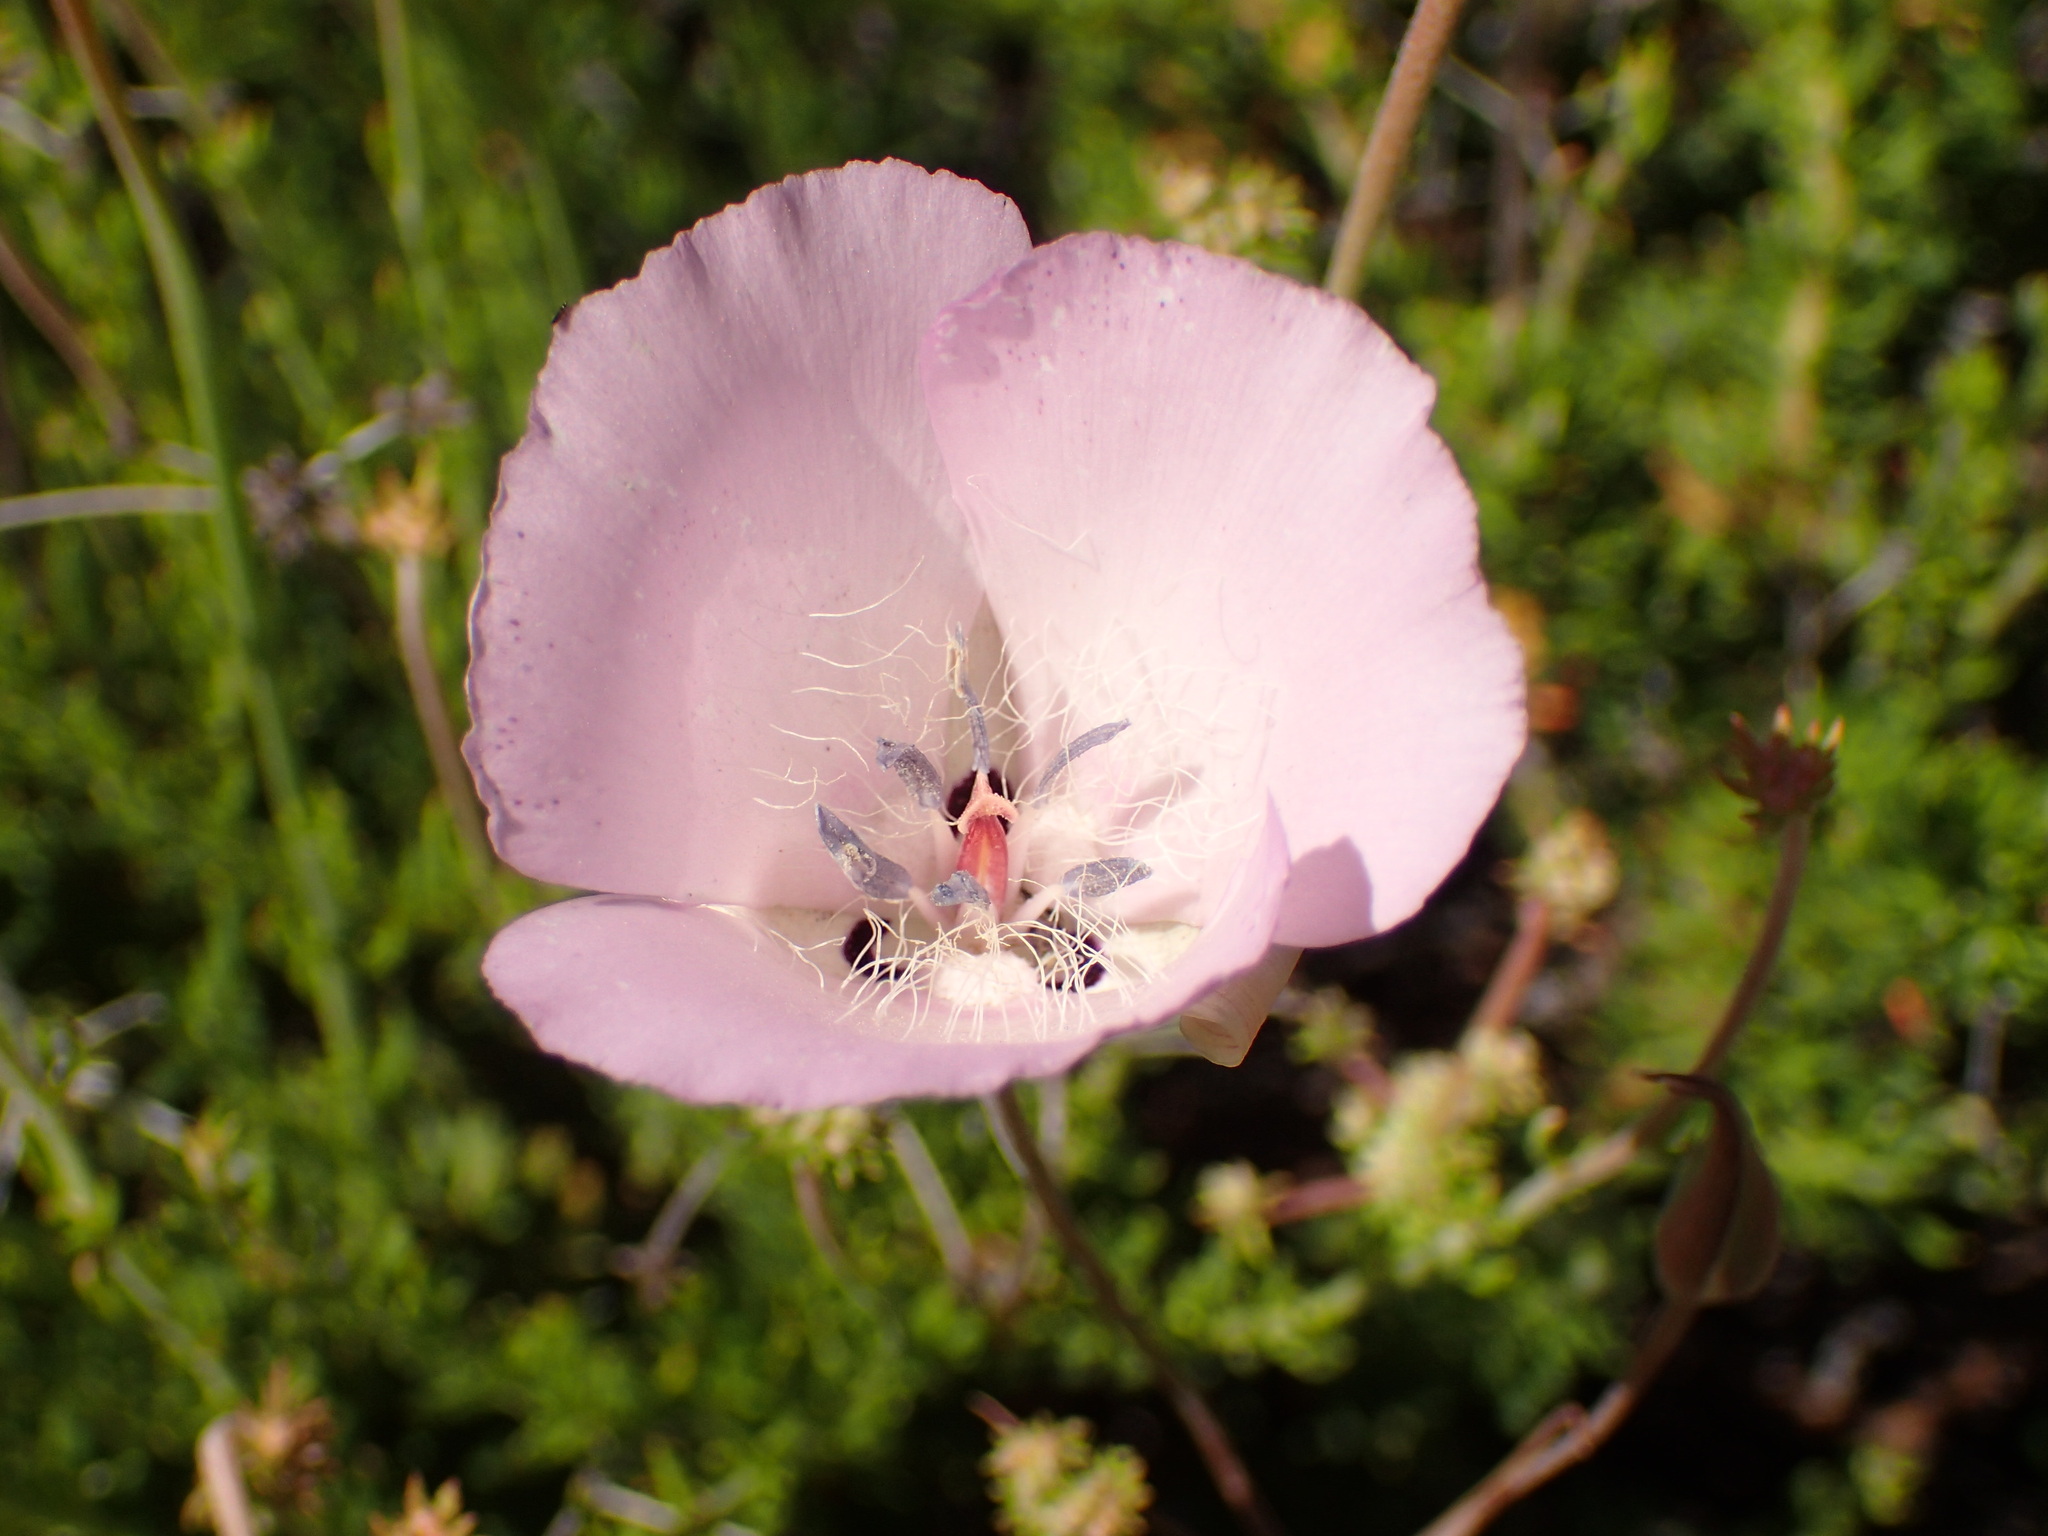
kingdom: Plantae
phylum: Tracheophyta
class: Liliopsida
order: Liliales
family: Liliaceae
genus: Calochortus
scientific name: Calochortus splendens
